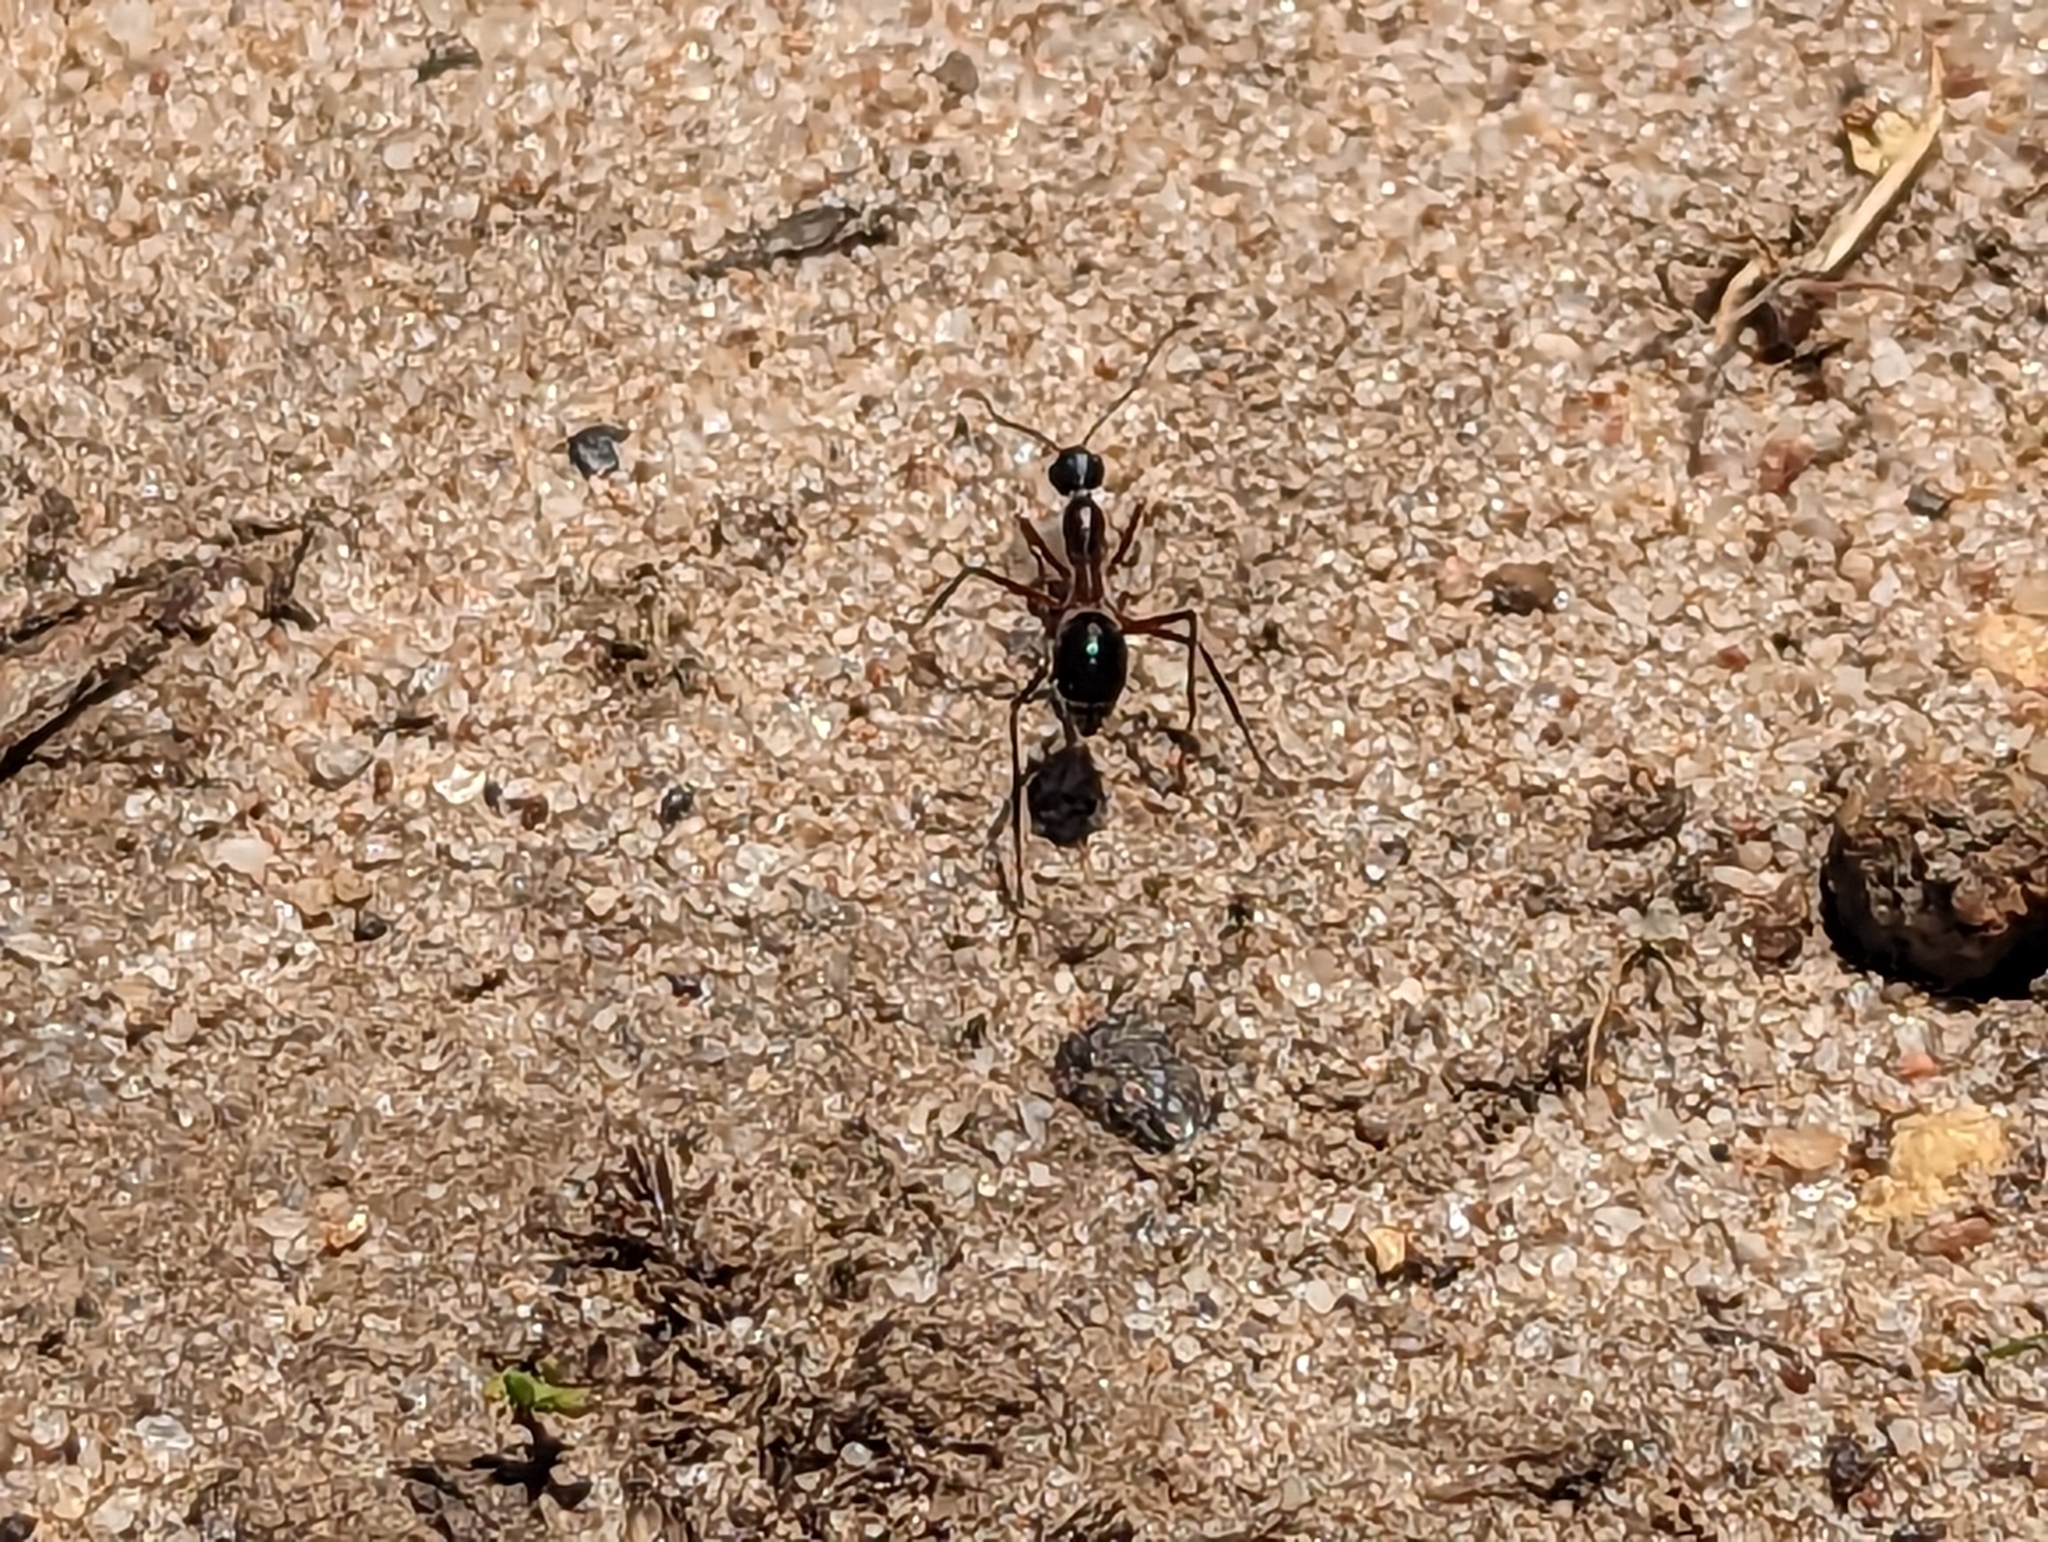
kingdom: Animalia
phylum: Arthropoda
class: Insecta
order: Hymenoptera
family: Formicidae
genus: Camponotus
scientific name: Camponotus intrepidus
